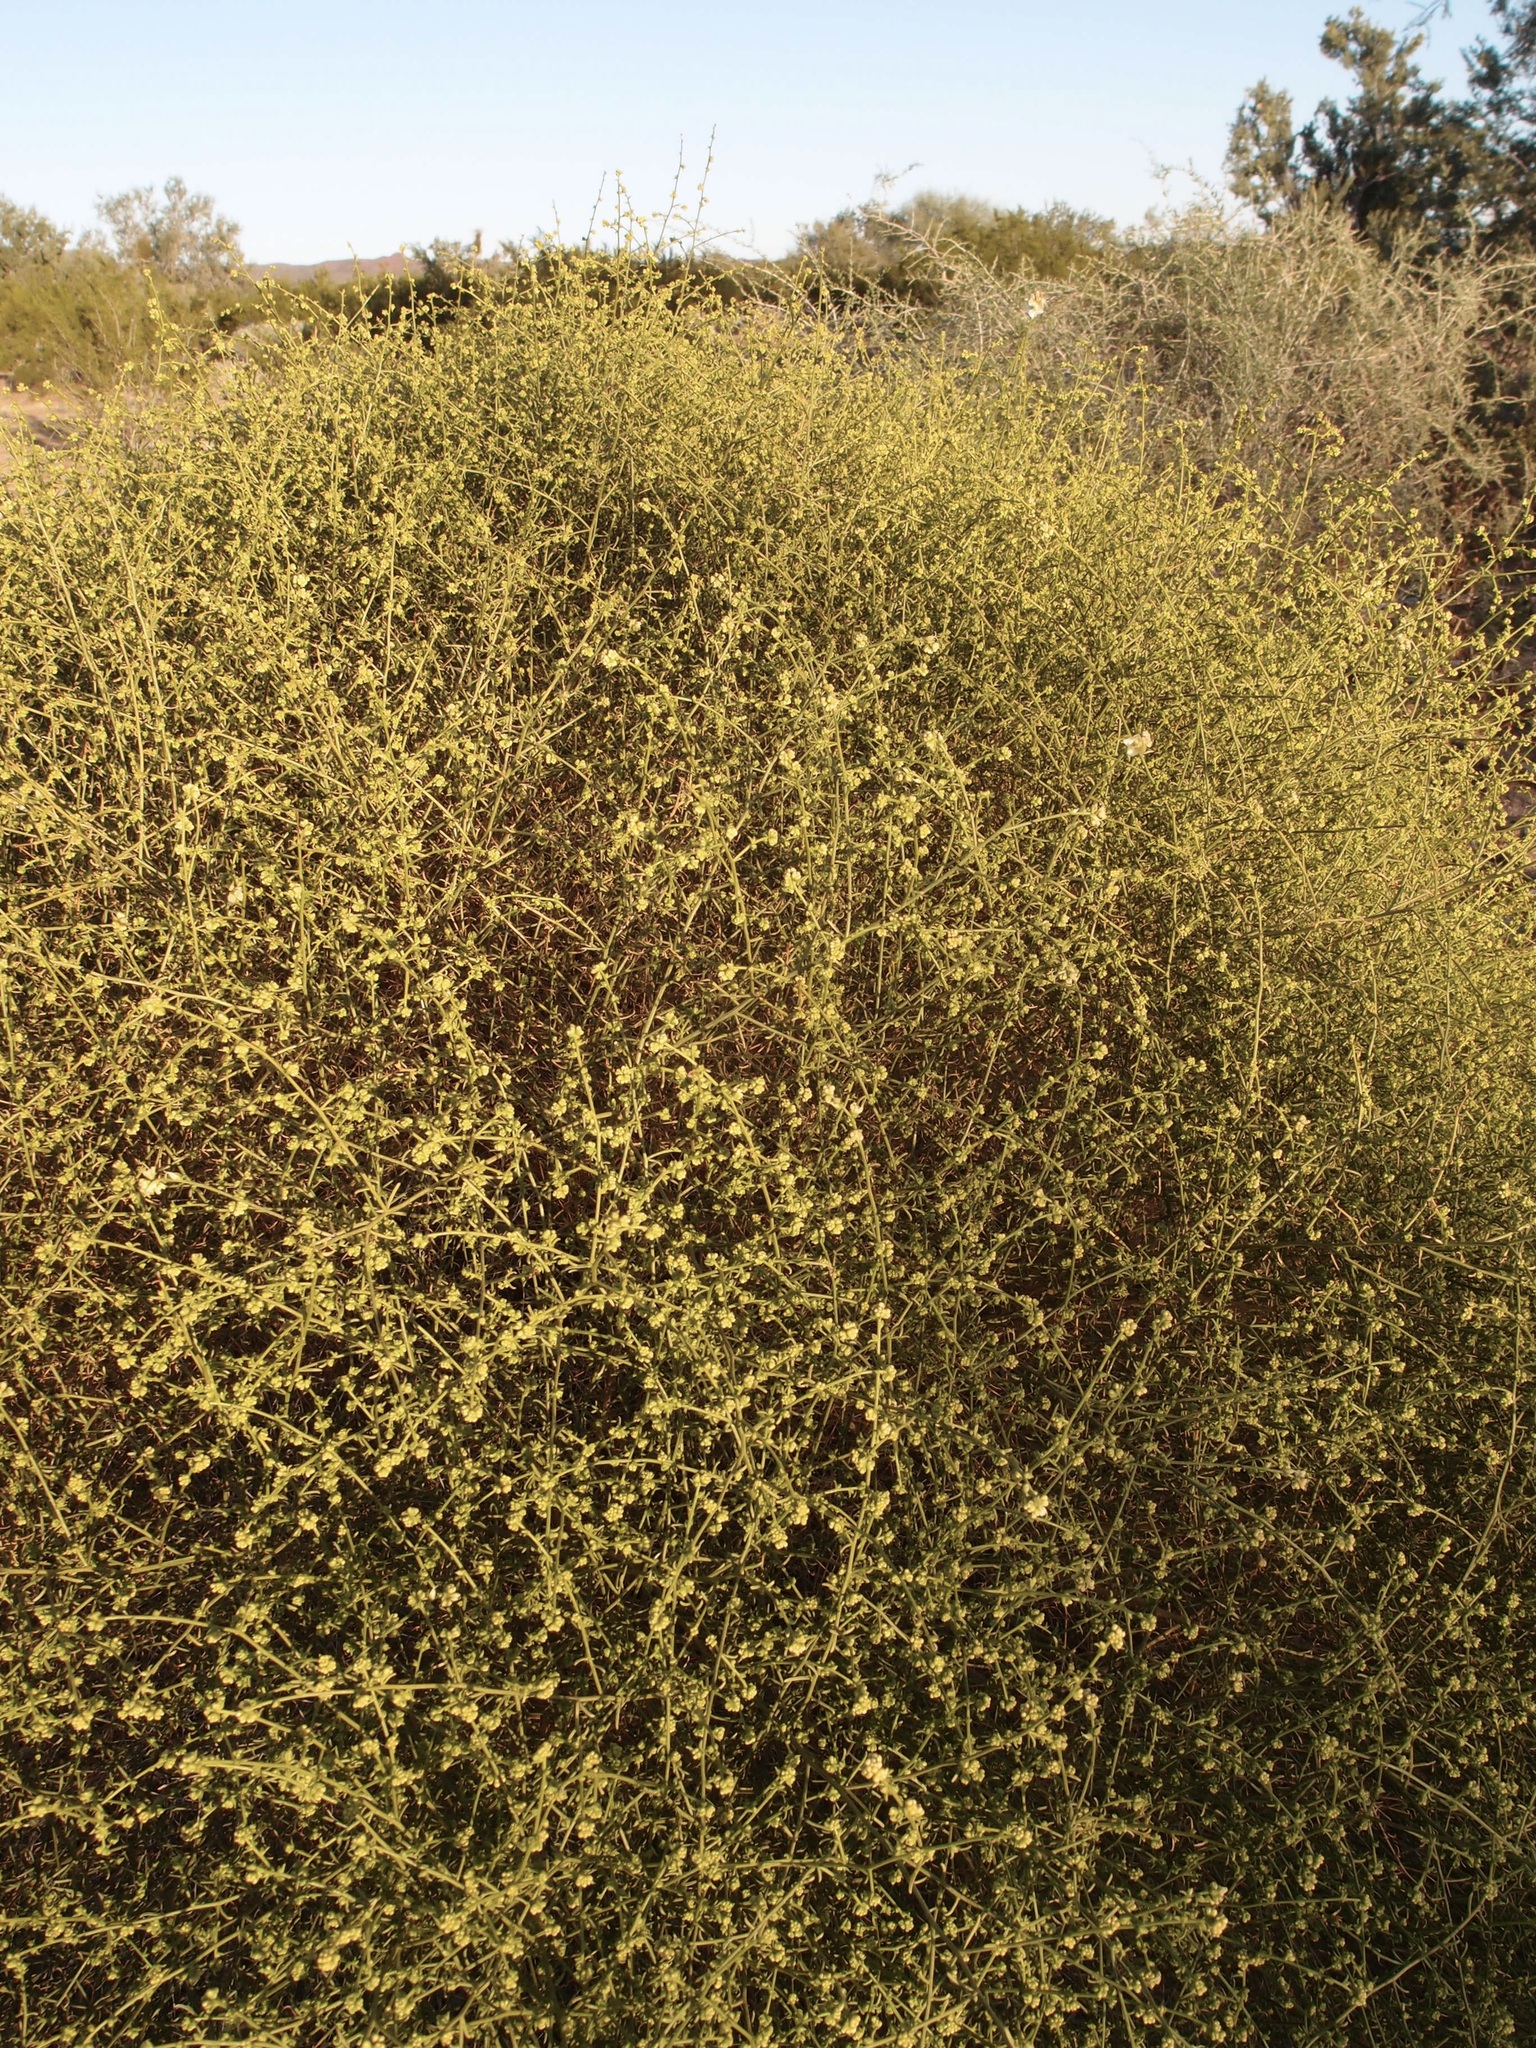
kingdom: Plantae
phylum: Tracheophyta
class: Magnoliopsida
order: Asterales
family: Asteraceae
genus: Ambrosia
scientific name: Ambrosia salsola
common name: Burrobrush
